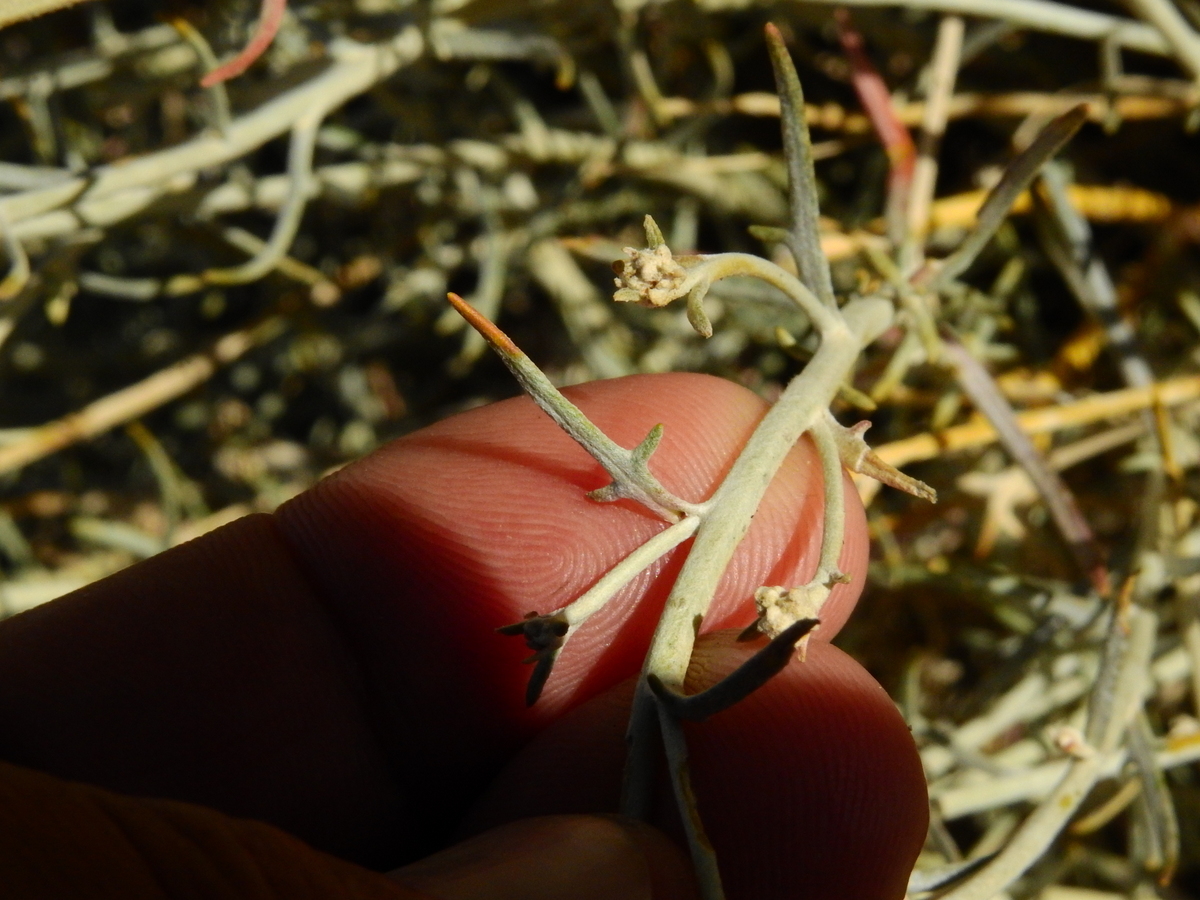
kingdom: Plantae
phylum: Tracheophyta
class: Magnoliopsida
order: Asterales
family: Asteraceae
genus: Senecio
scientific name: Senecio neaei
